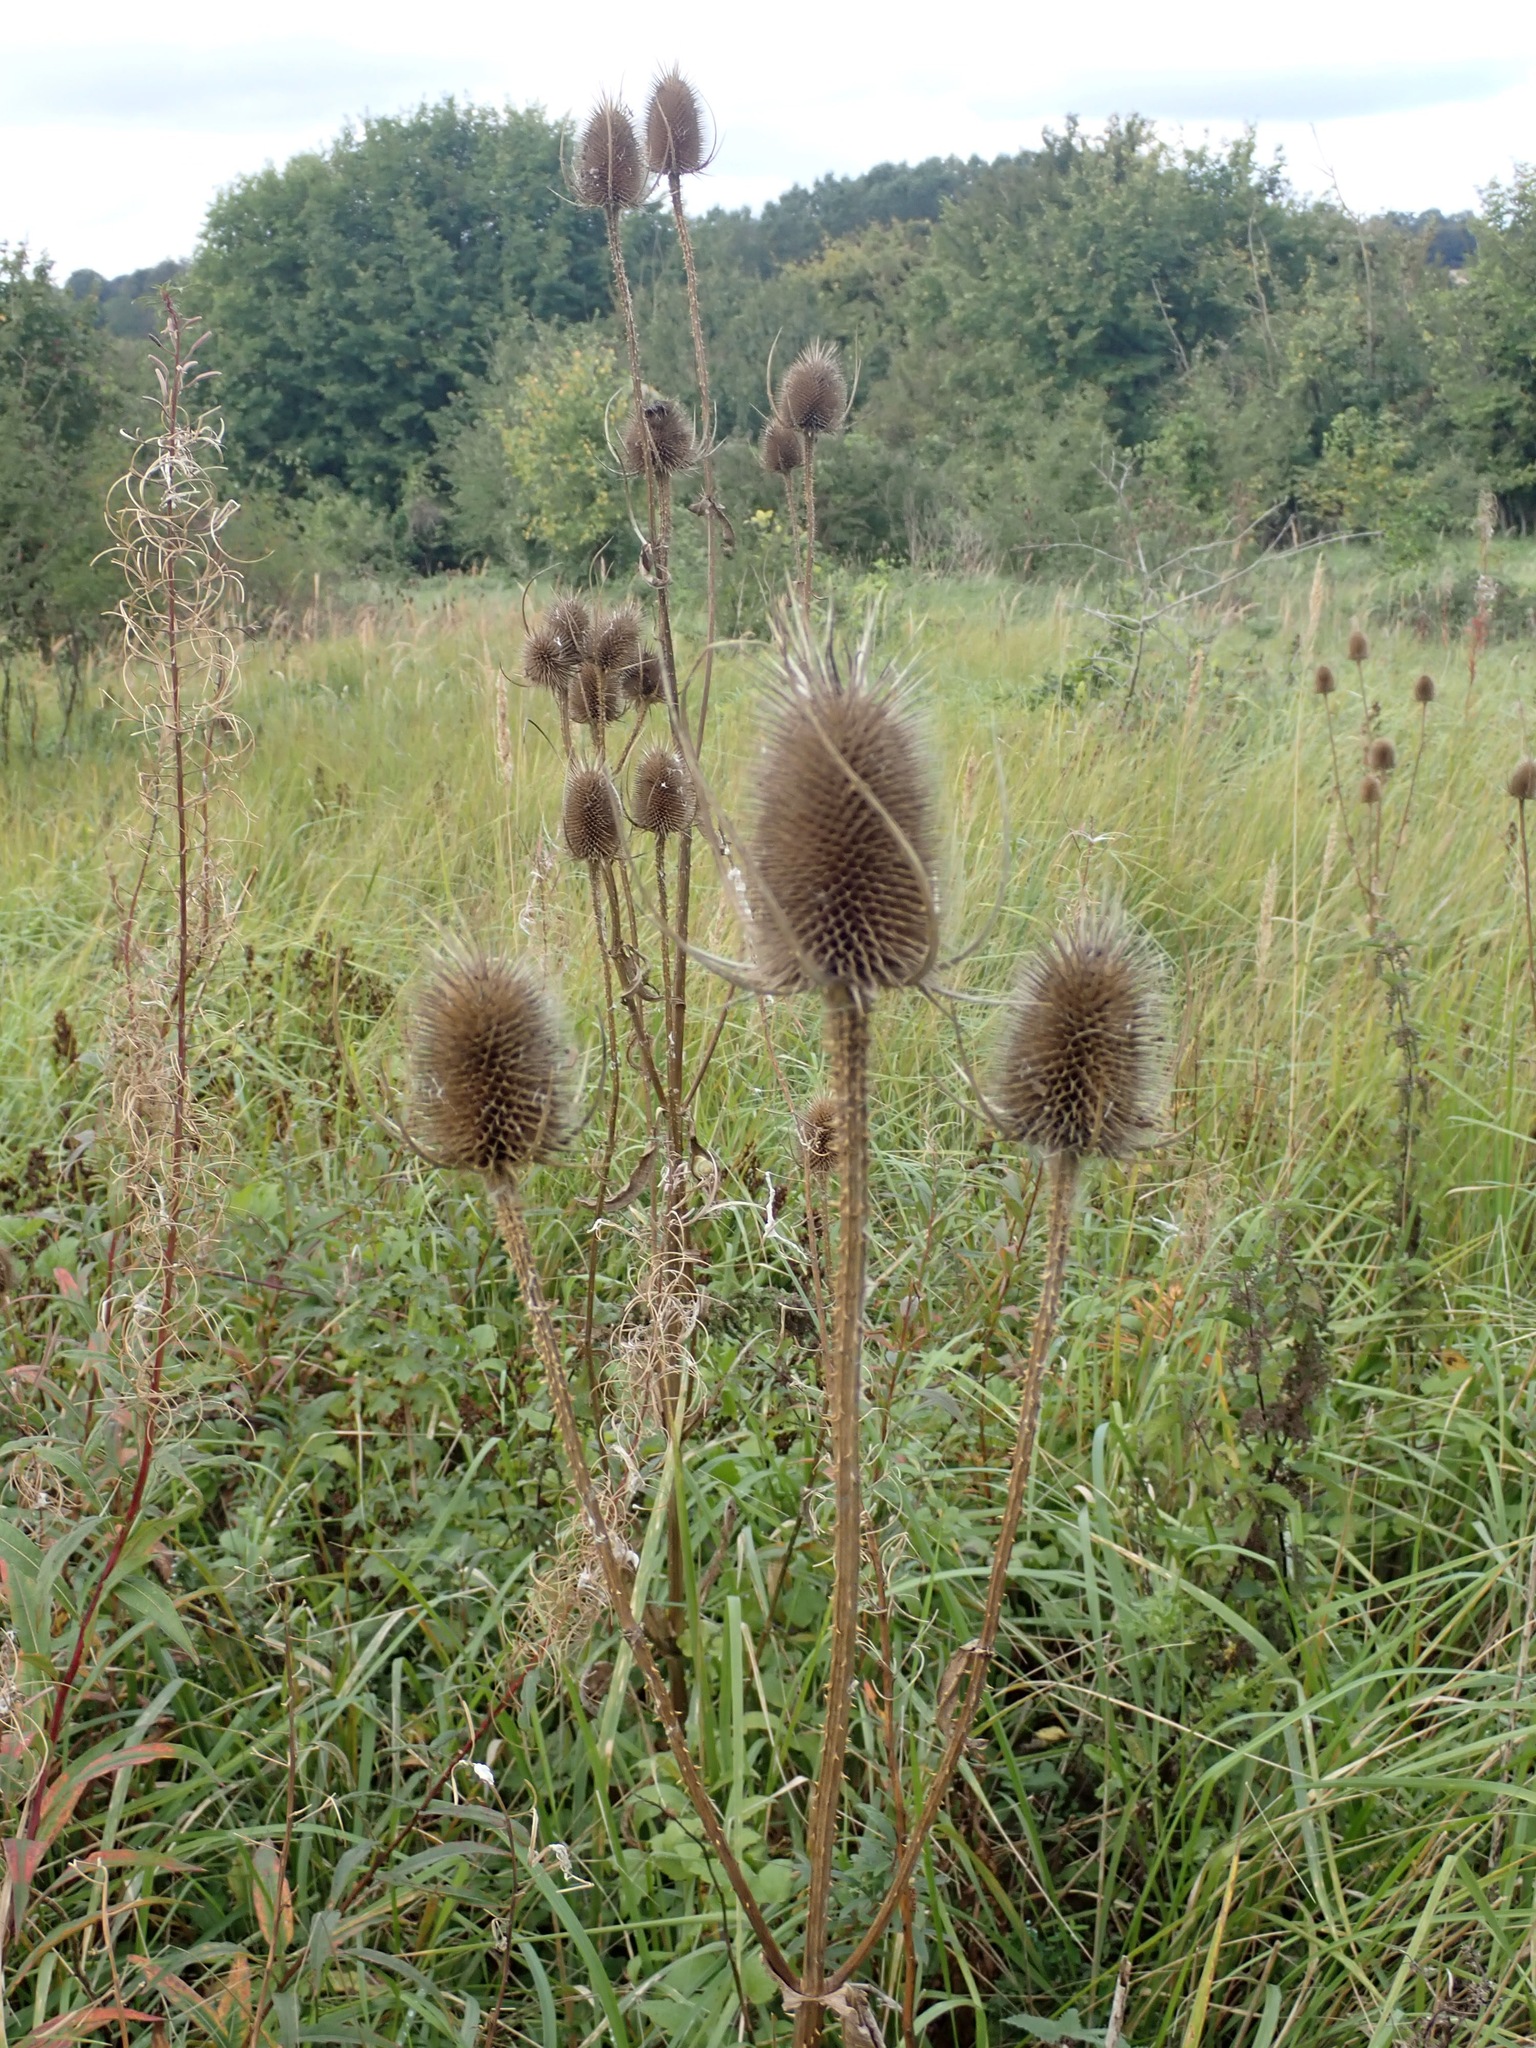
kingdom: Plantae
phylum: Tracheophyta
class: Magnoliopsida
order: Dipsacales
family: Caprifoliaceae
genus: Dipsacus
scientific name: Dipsacus fullonum
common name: Teasel
